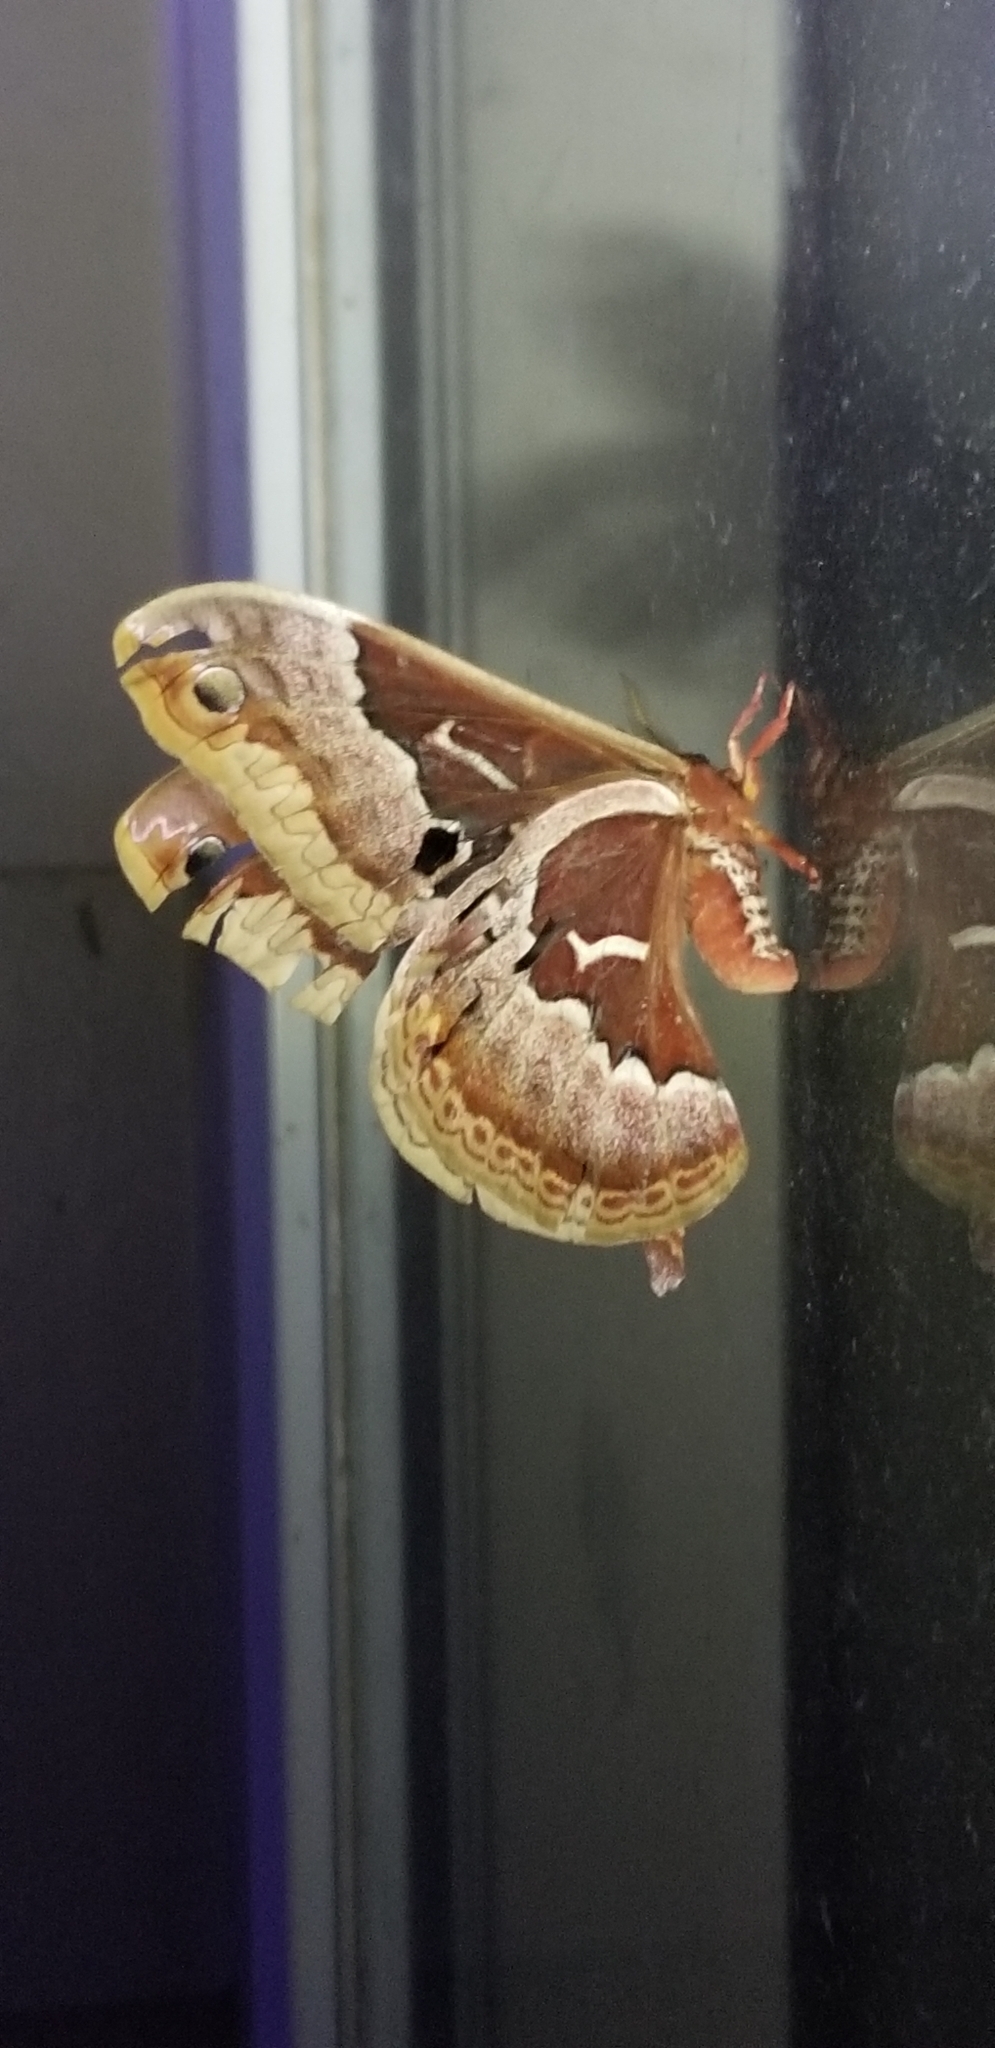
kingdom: Animalia
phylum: Arthropoda
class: Insecta
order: Lepidoptera
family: Saturniidae
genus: Callosamia
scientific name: Callosamia promethea
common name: Promethea silkmoth
